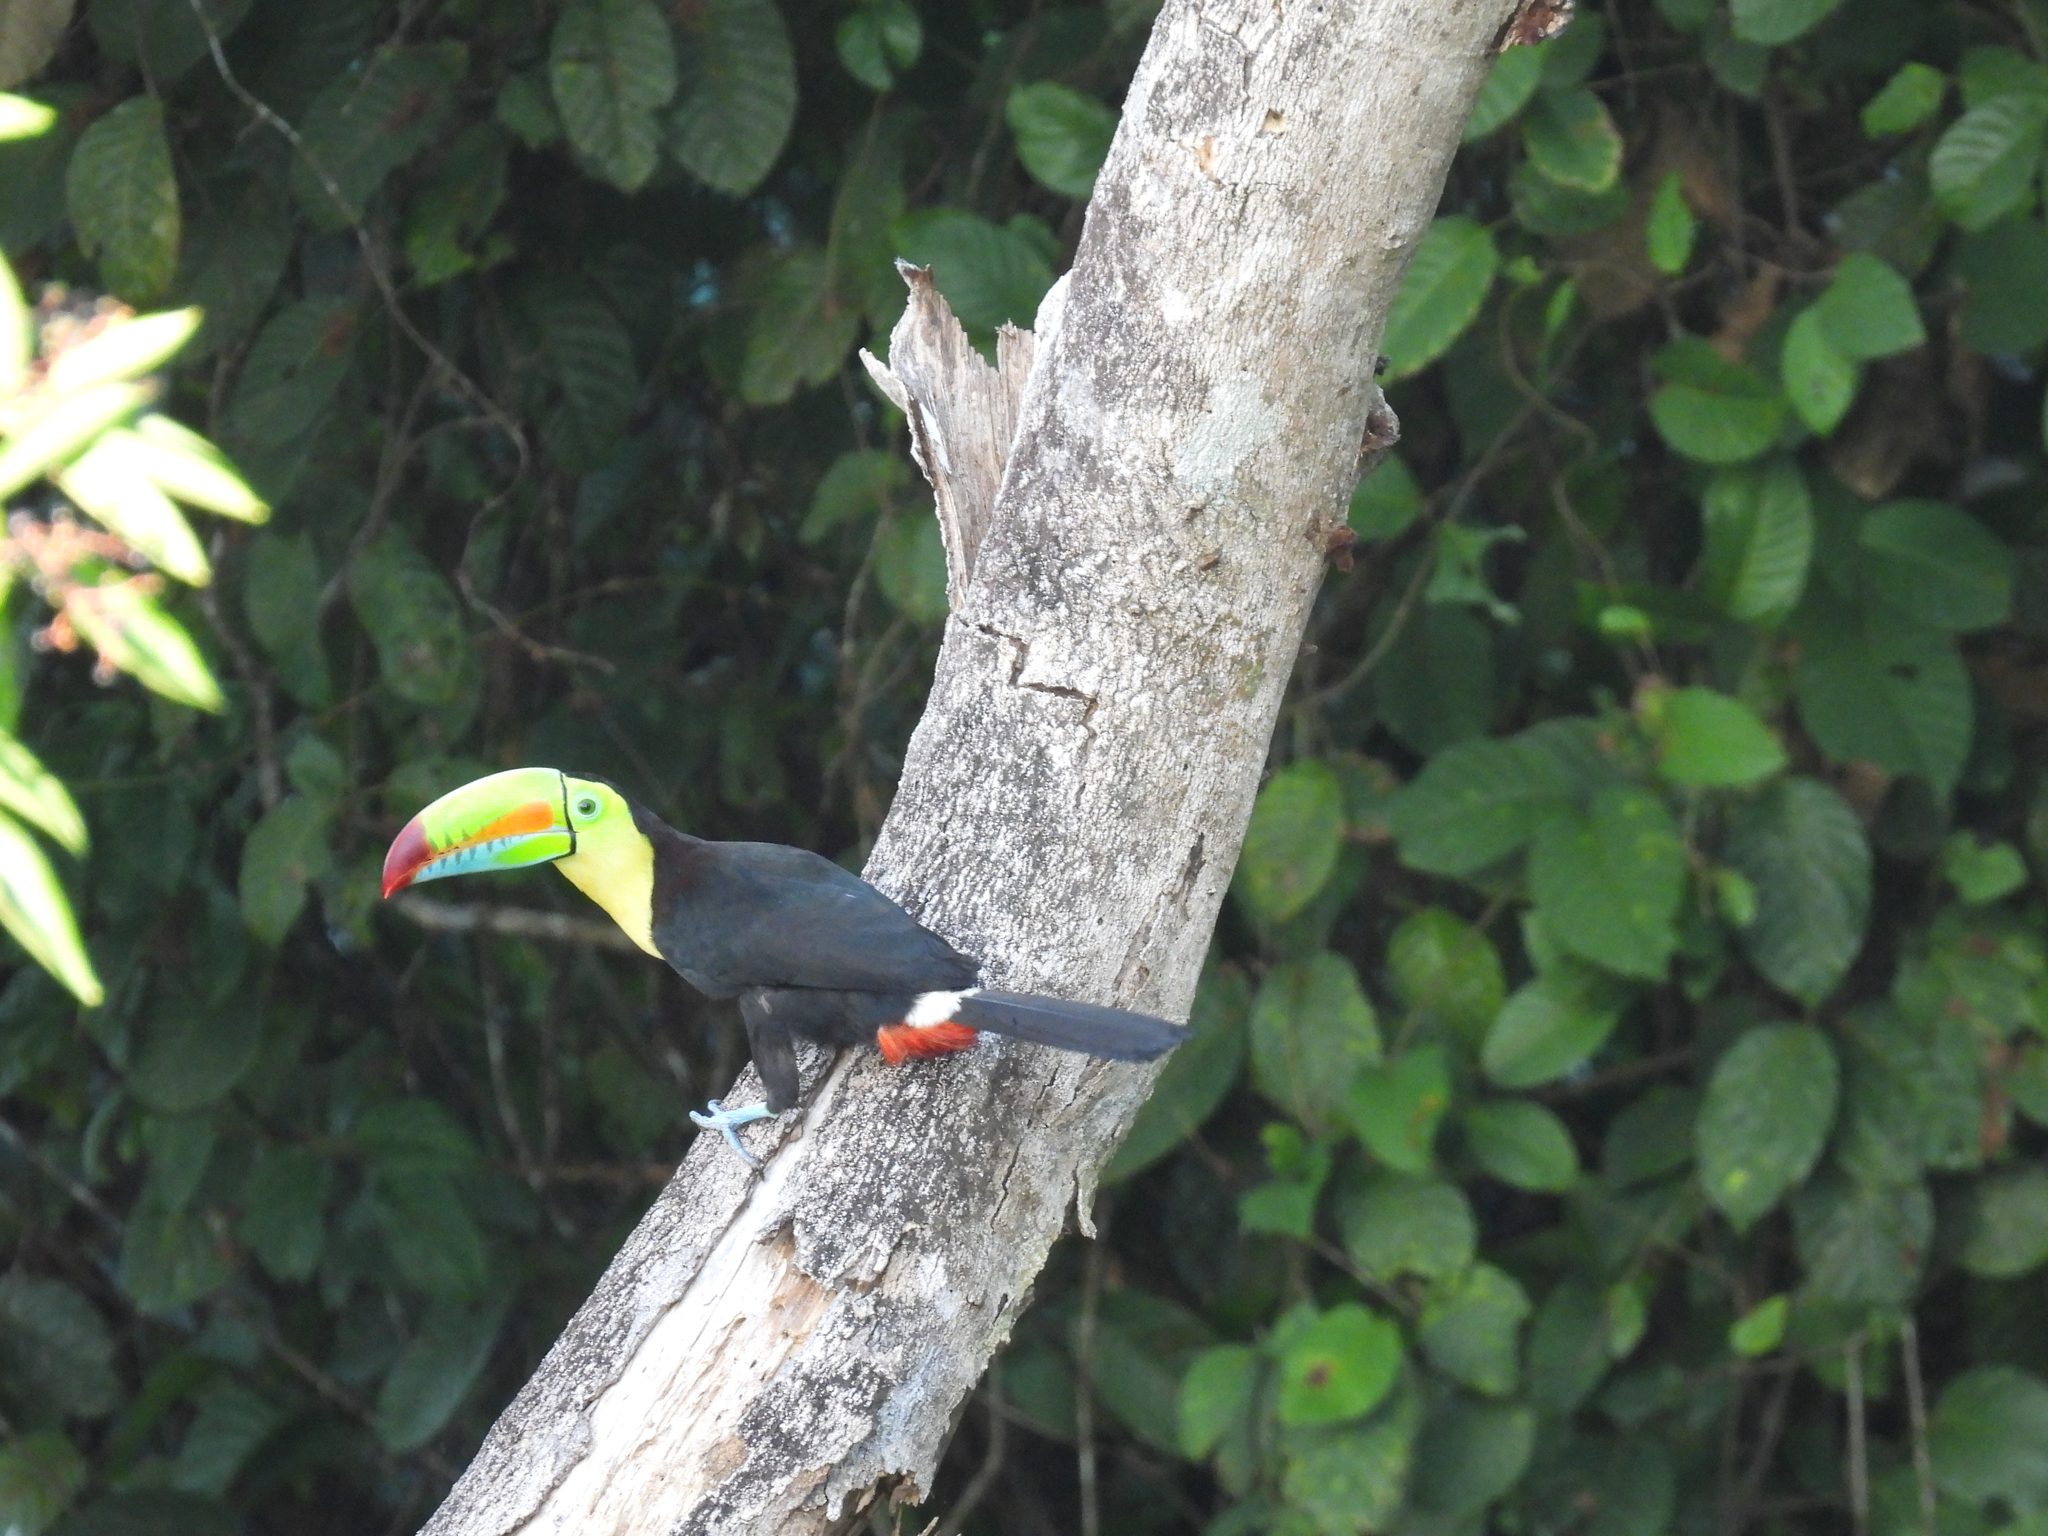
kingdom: Animalia
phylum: Chordata
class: Aves
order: Piciformes
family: Ramphastidae
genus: Ramphastos
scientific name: Ramphastos sulfuratus
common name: Keel-billed toucan
